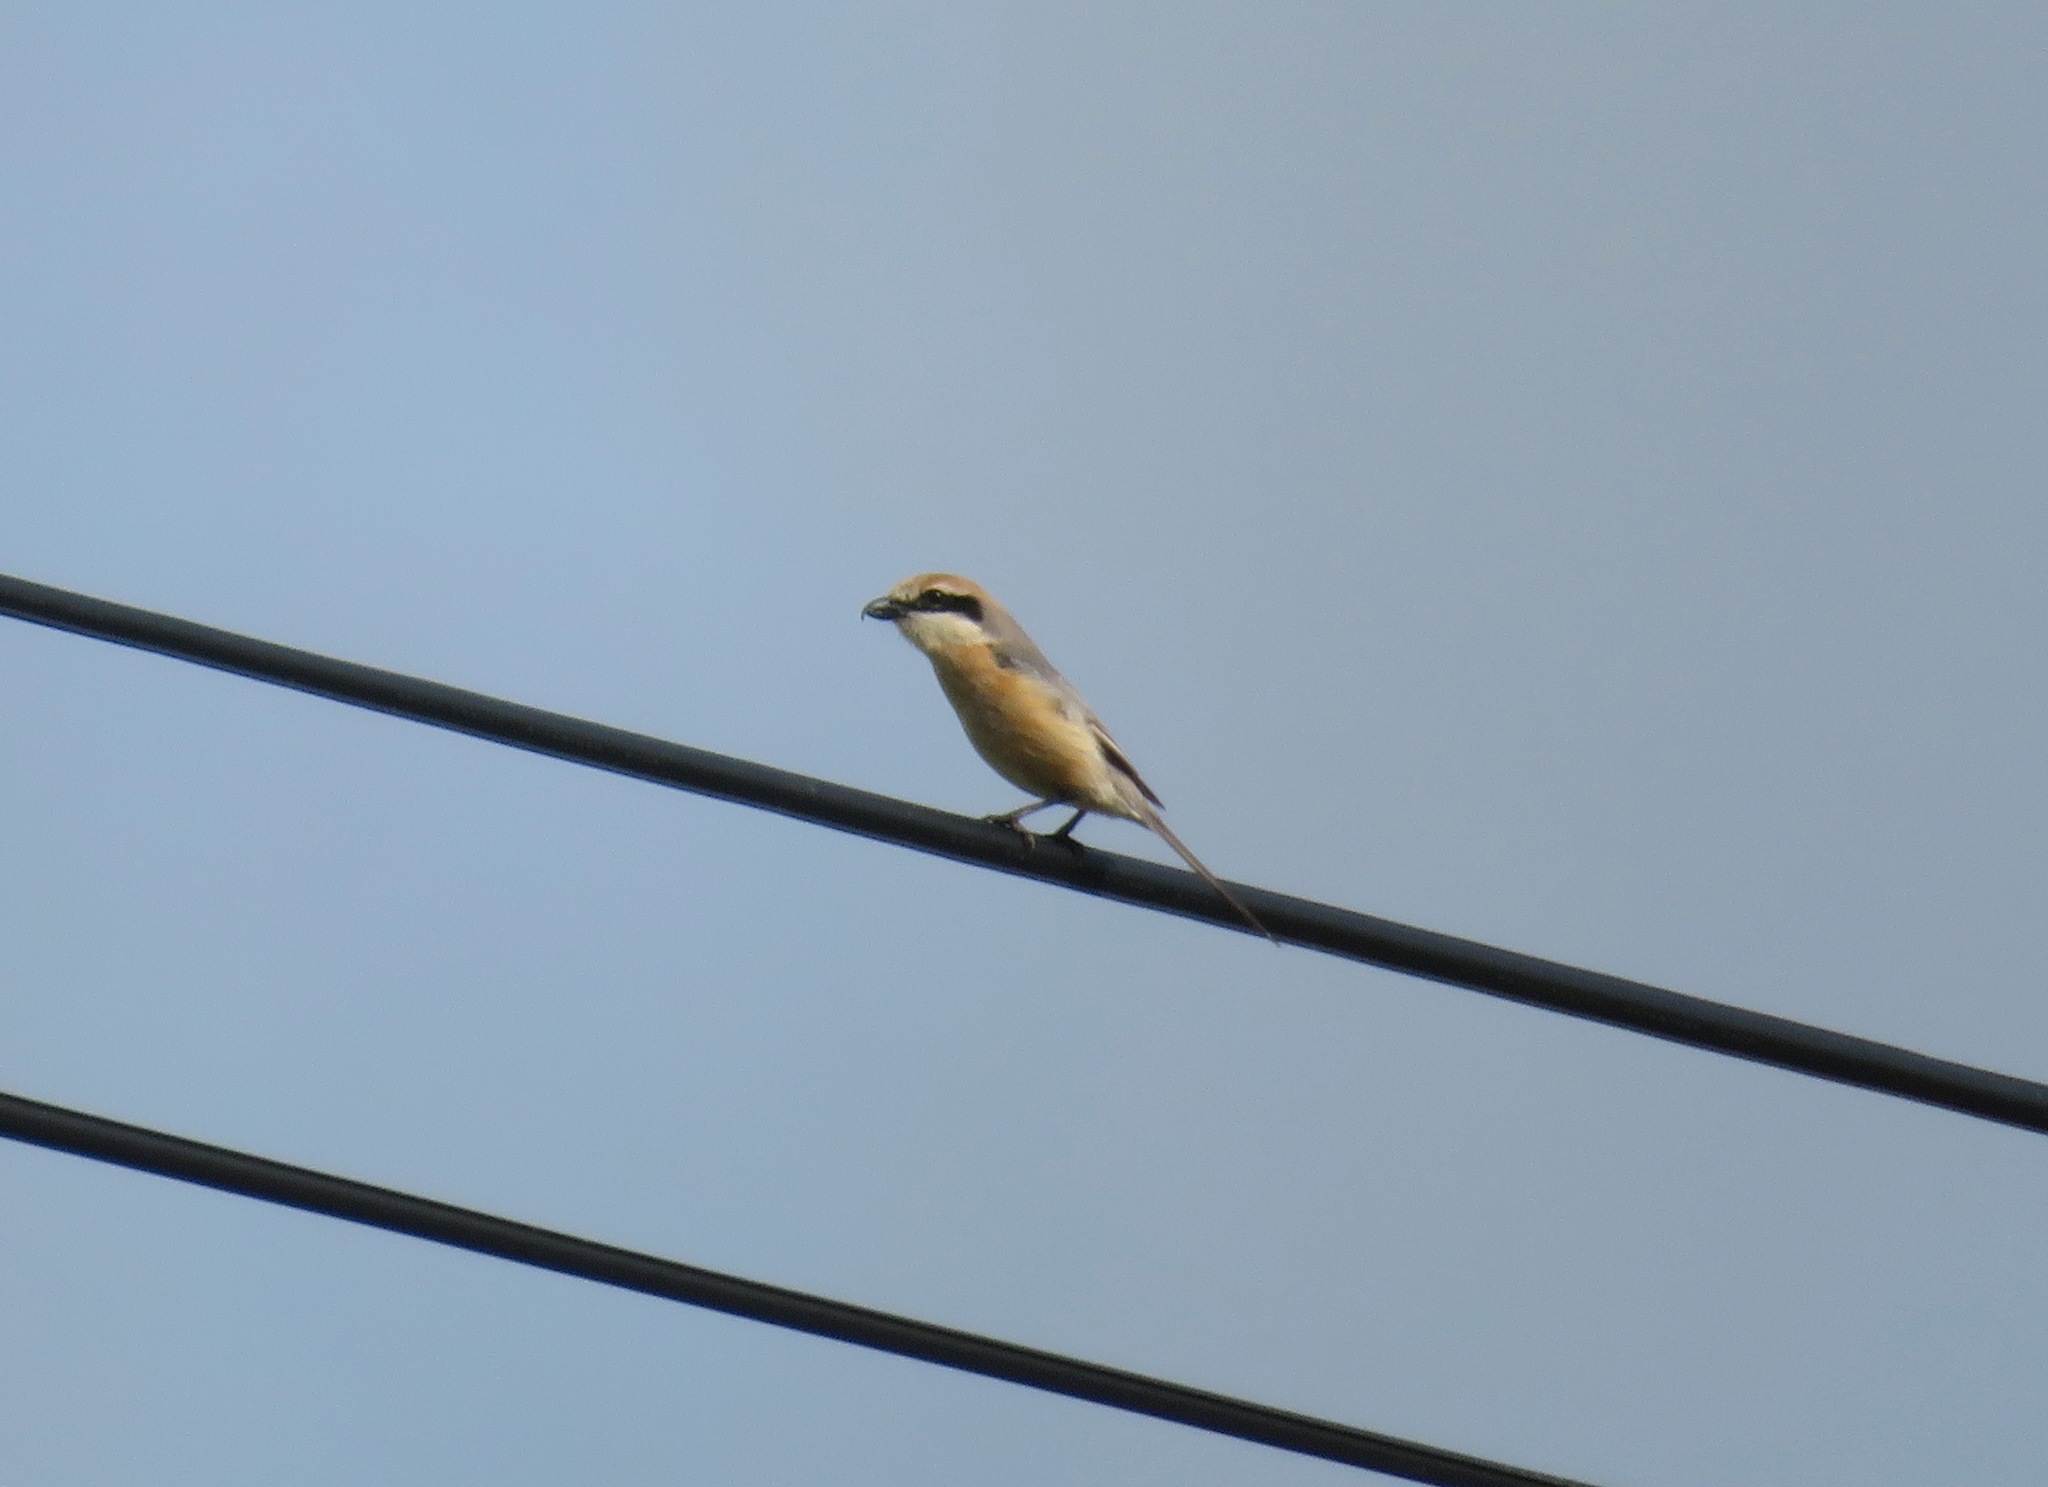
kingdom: Animalia
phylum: Chordata
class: Aves
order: Passeriformes
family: Laniidae
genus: Lanius
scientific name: Lanius bucephalus
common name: Bull-headed shrike
